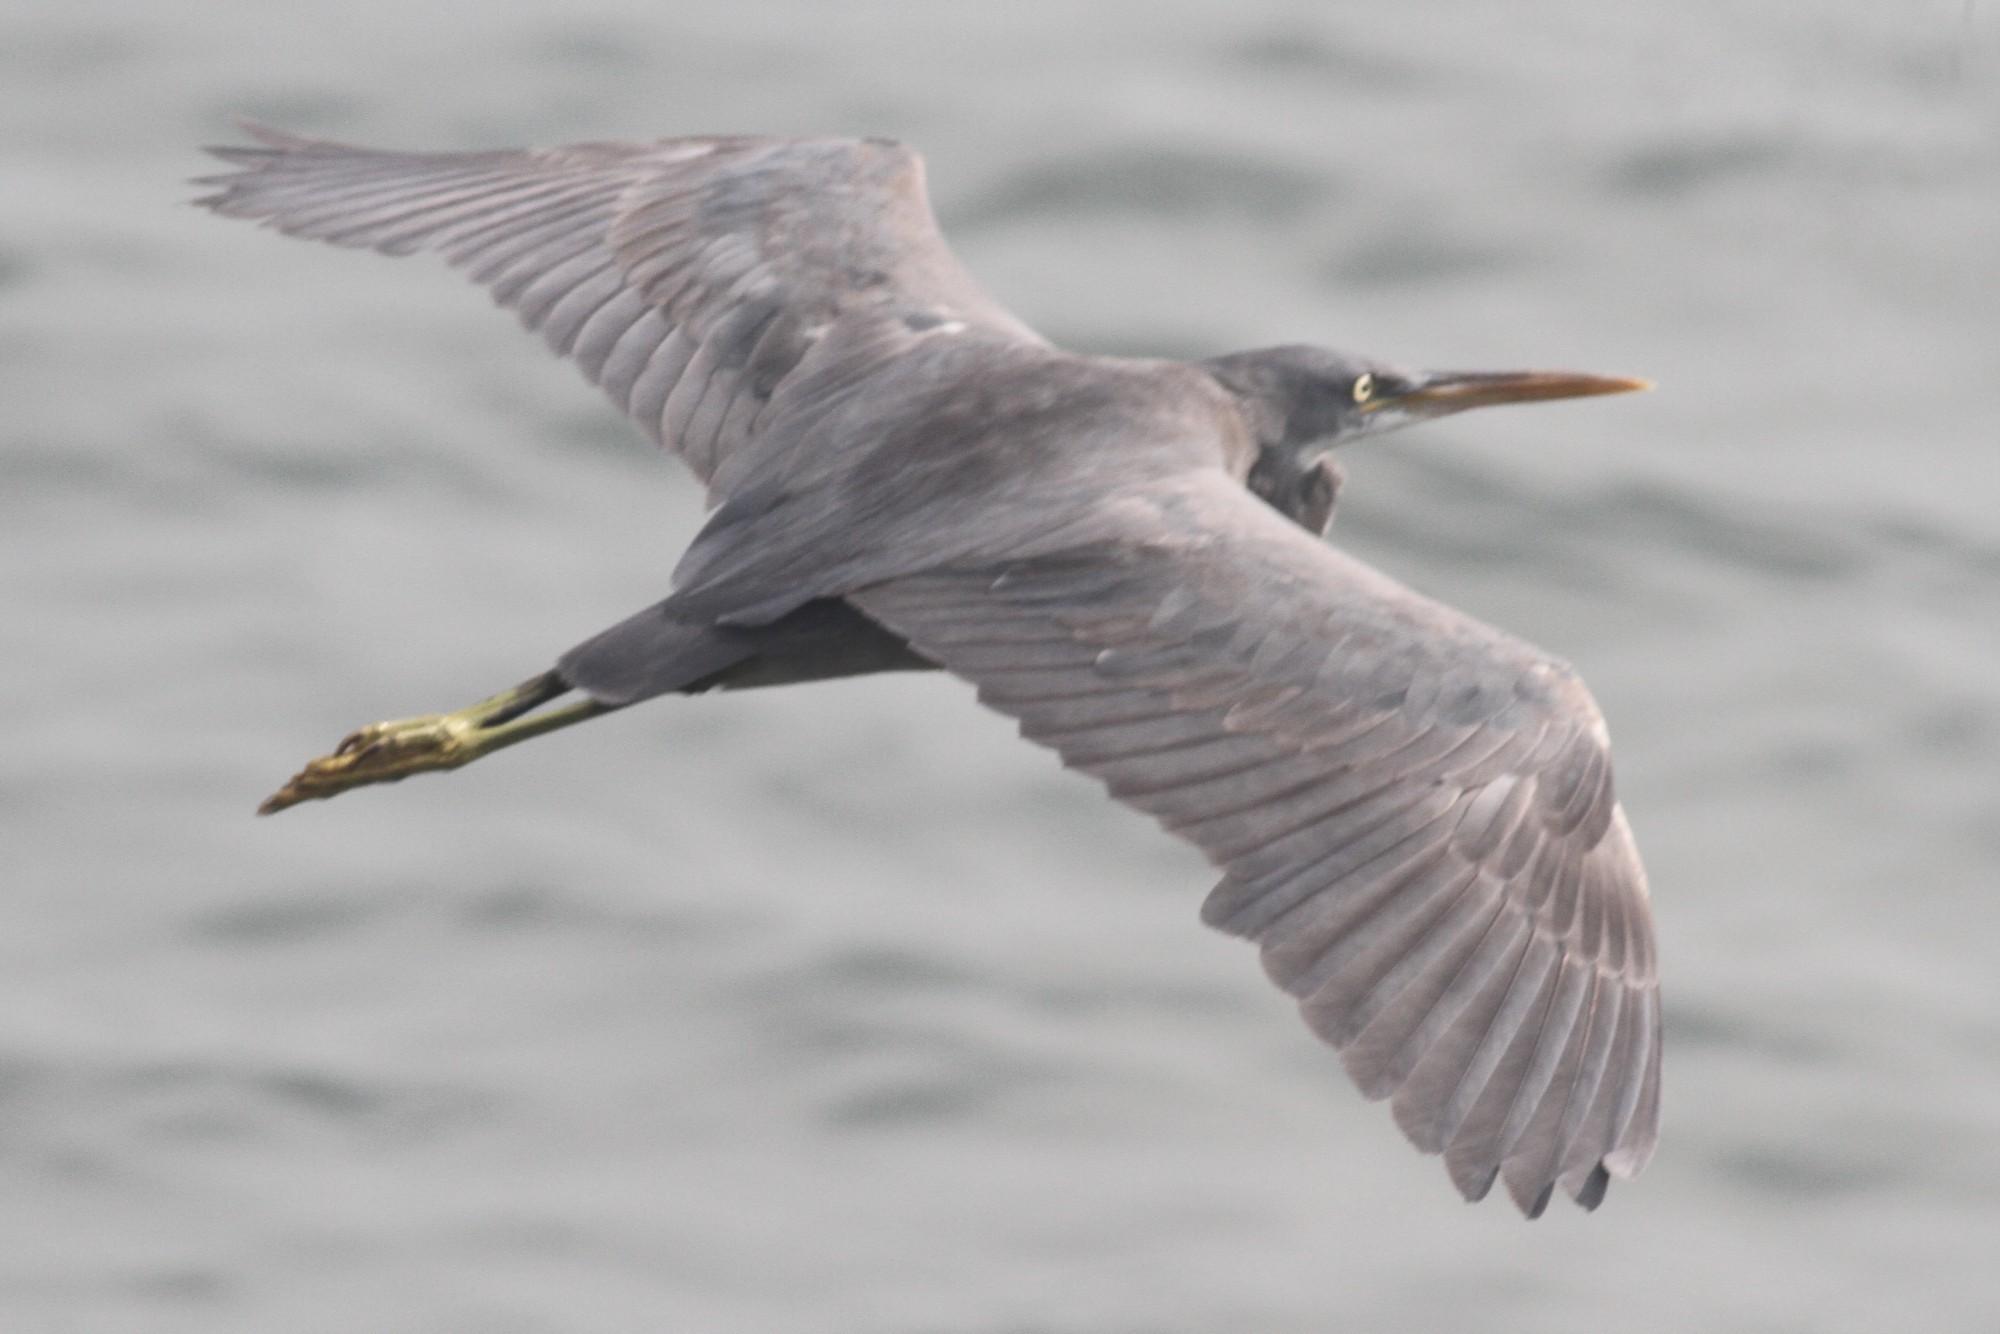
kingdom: Animalia
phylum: Chordata
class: Aves
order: Pelecaniformes
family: Ardeidae
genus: Egretta
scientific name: Egretta gularis
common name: Western reef-heron
